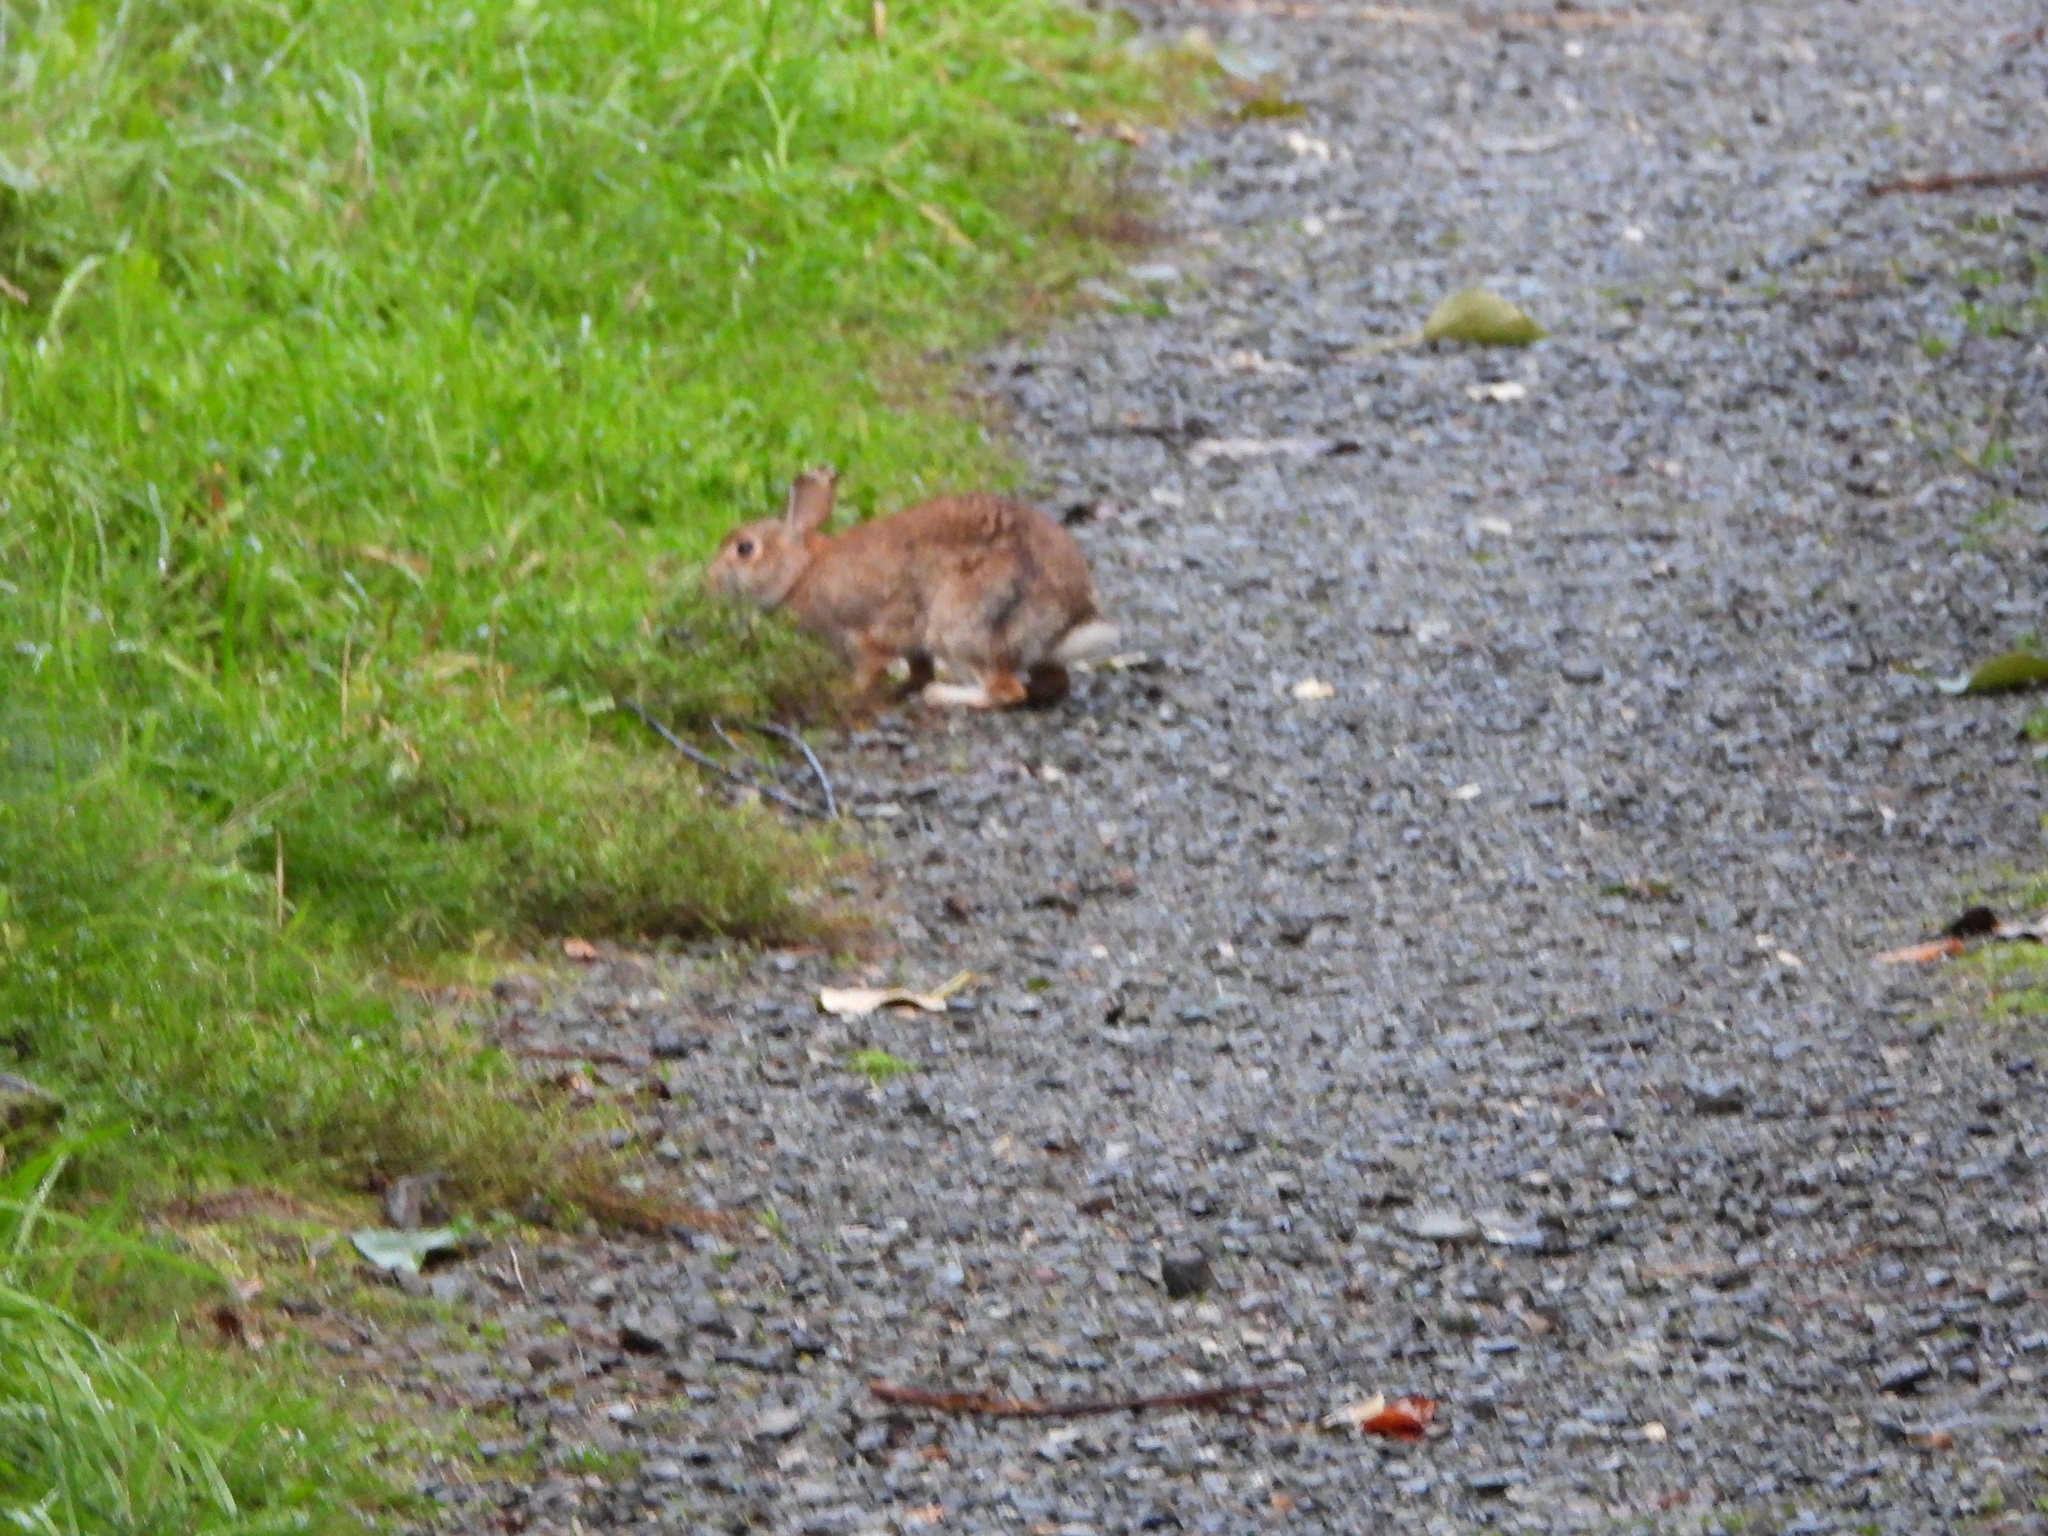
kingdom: Animalia
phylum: Chordata
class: Mammalia
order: Lagomorpha
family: Leporidae
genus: Sylvilagus
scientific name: Sylvilagus floridanus
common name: Eastern cottontail
